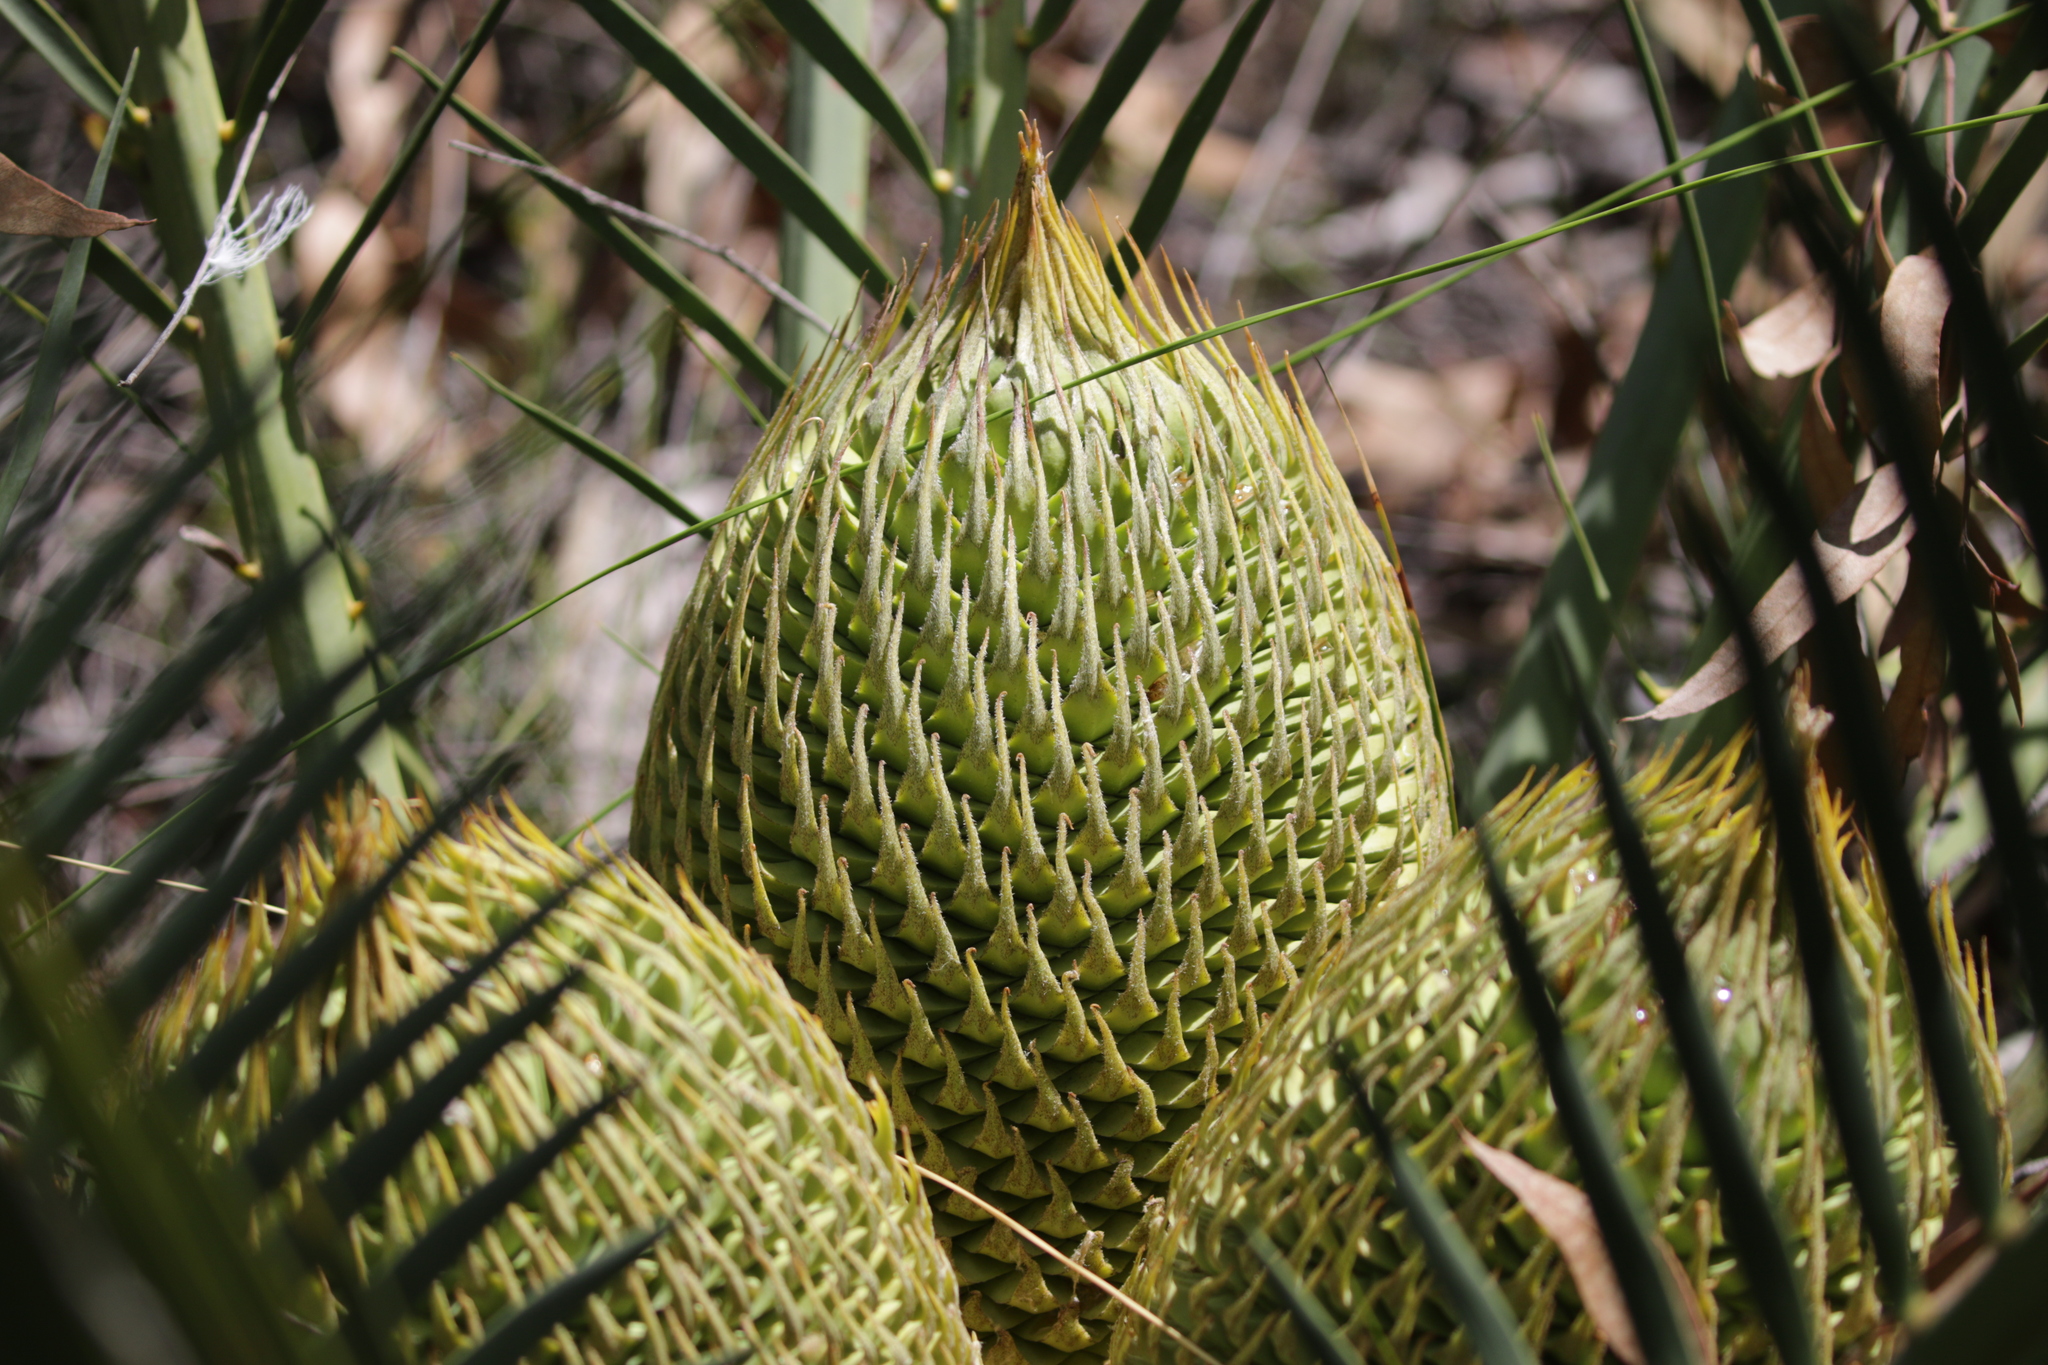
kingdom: Plantae
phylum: Tracheophyta
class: Cycadopsida
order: Cycadales
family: Zamiaceae
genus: Macrozamia
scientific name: Macrozamia fraseri
